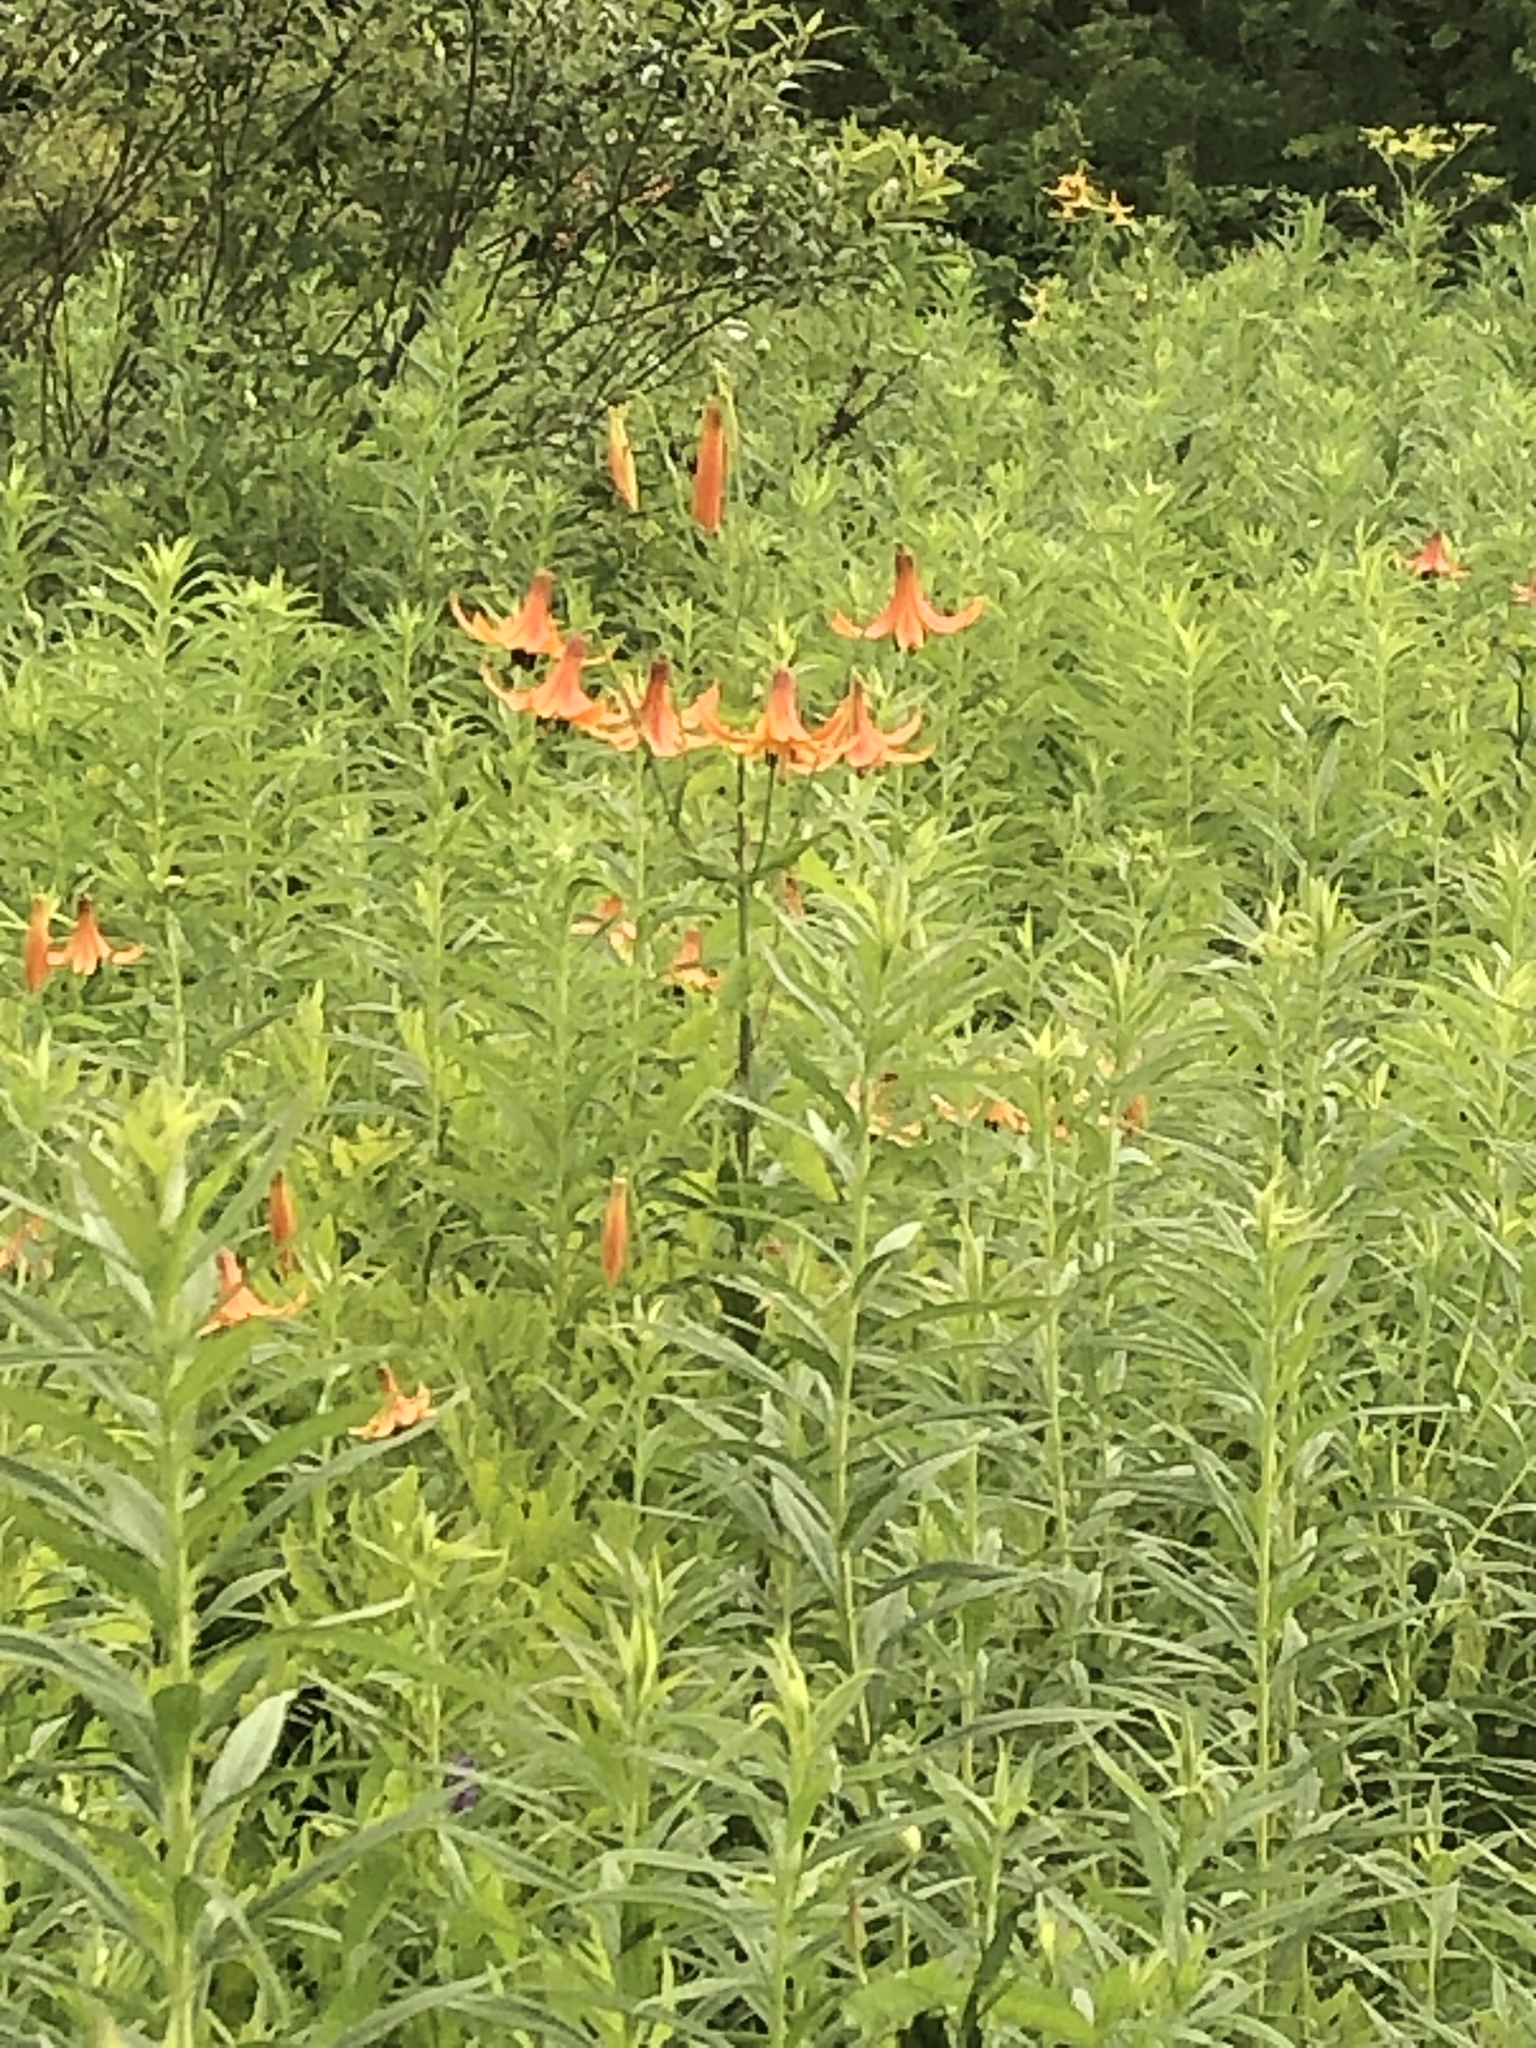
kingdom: Plantae
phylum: Tracheophyta
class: Liliopsida
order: Liliales
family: Liliaceae
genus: Lilium
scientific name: Lilium canadense
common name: Canada lily
